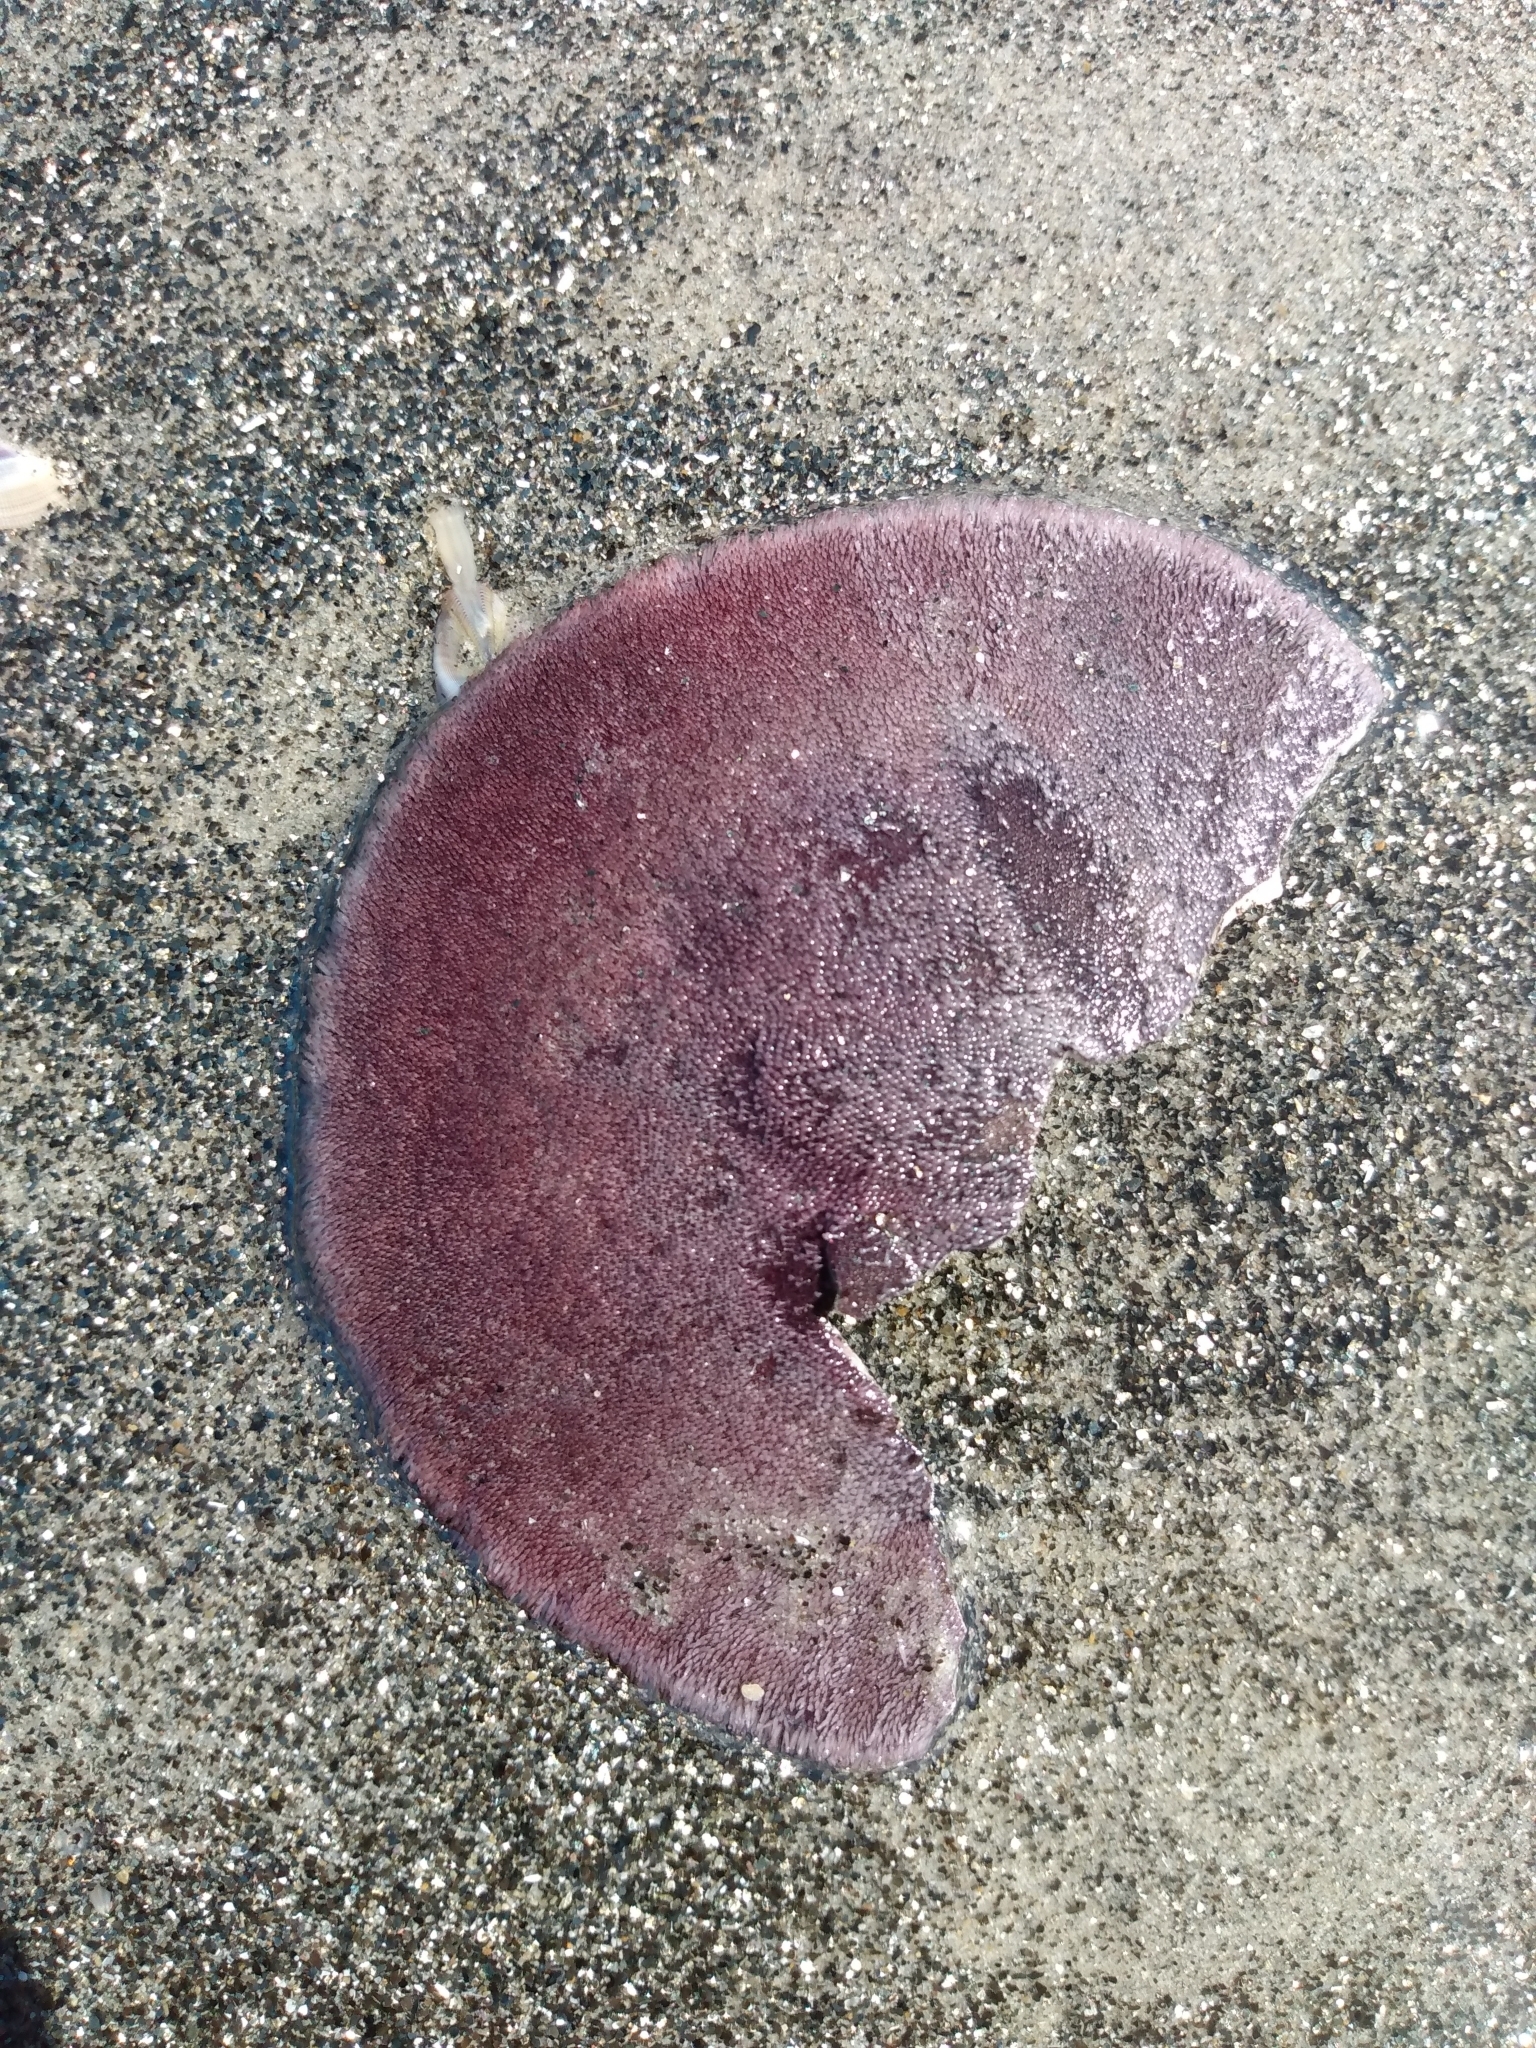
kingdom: Animalia
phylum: Echinodermata
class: Echinoidea
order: Echinolampadacea
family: Dendrasteridae
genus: Dendraster
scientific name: Dendraster excentricus
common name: Eccentric sand dollar sea urchin
